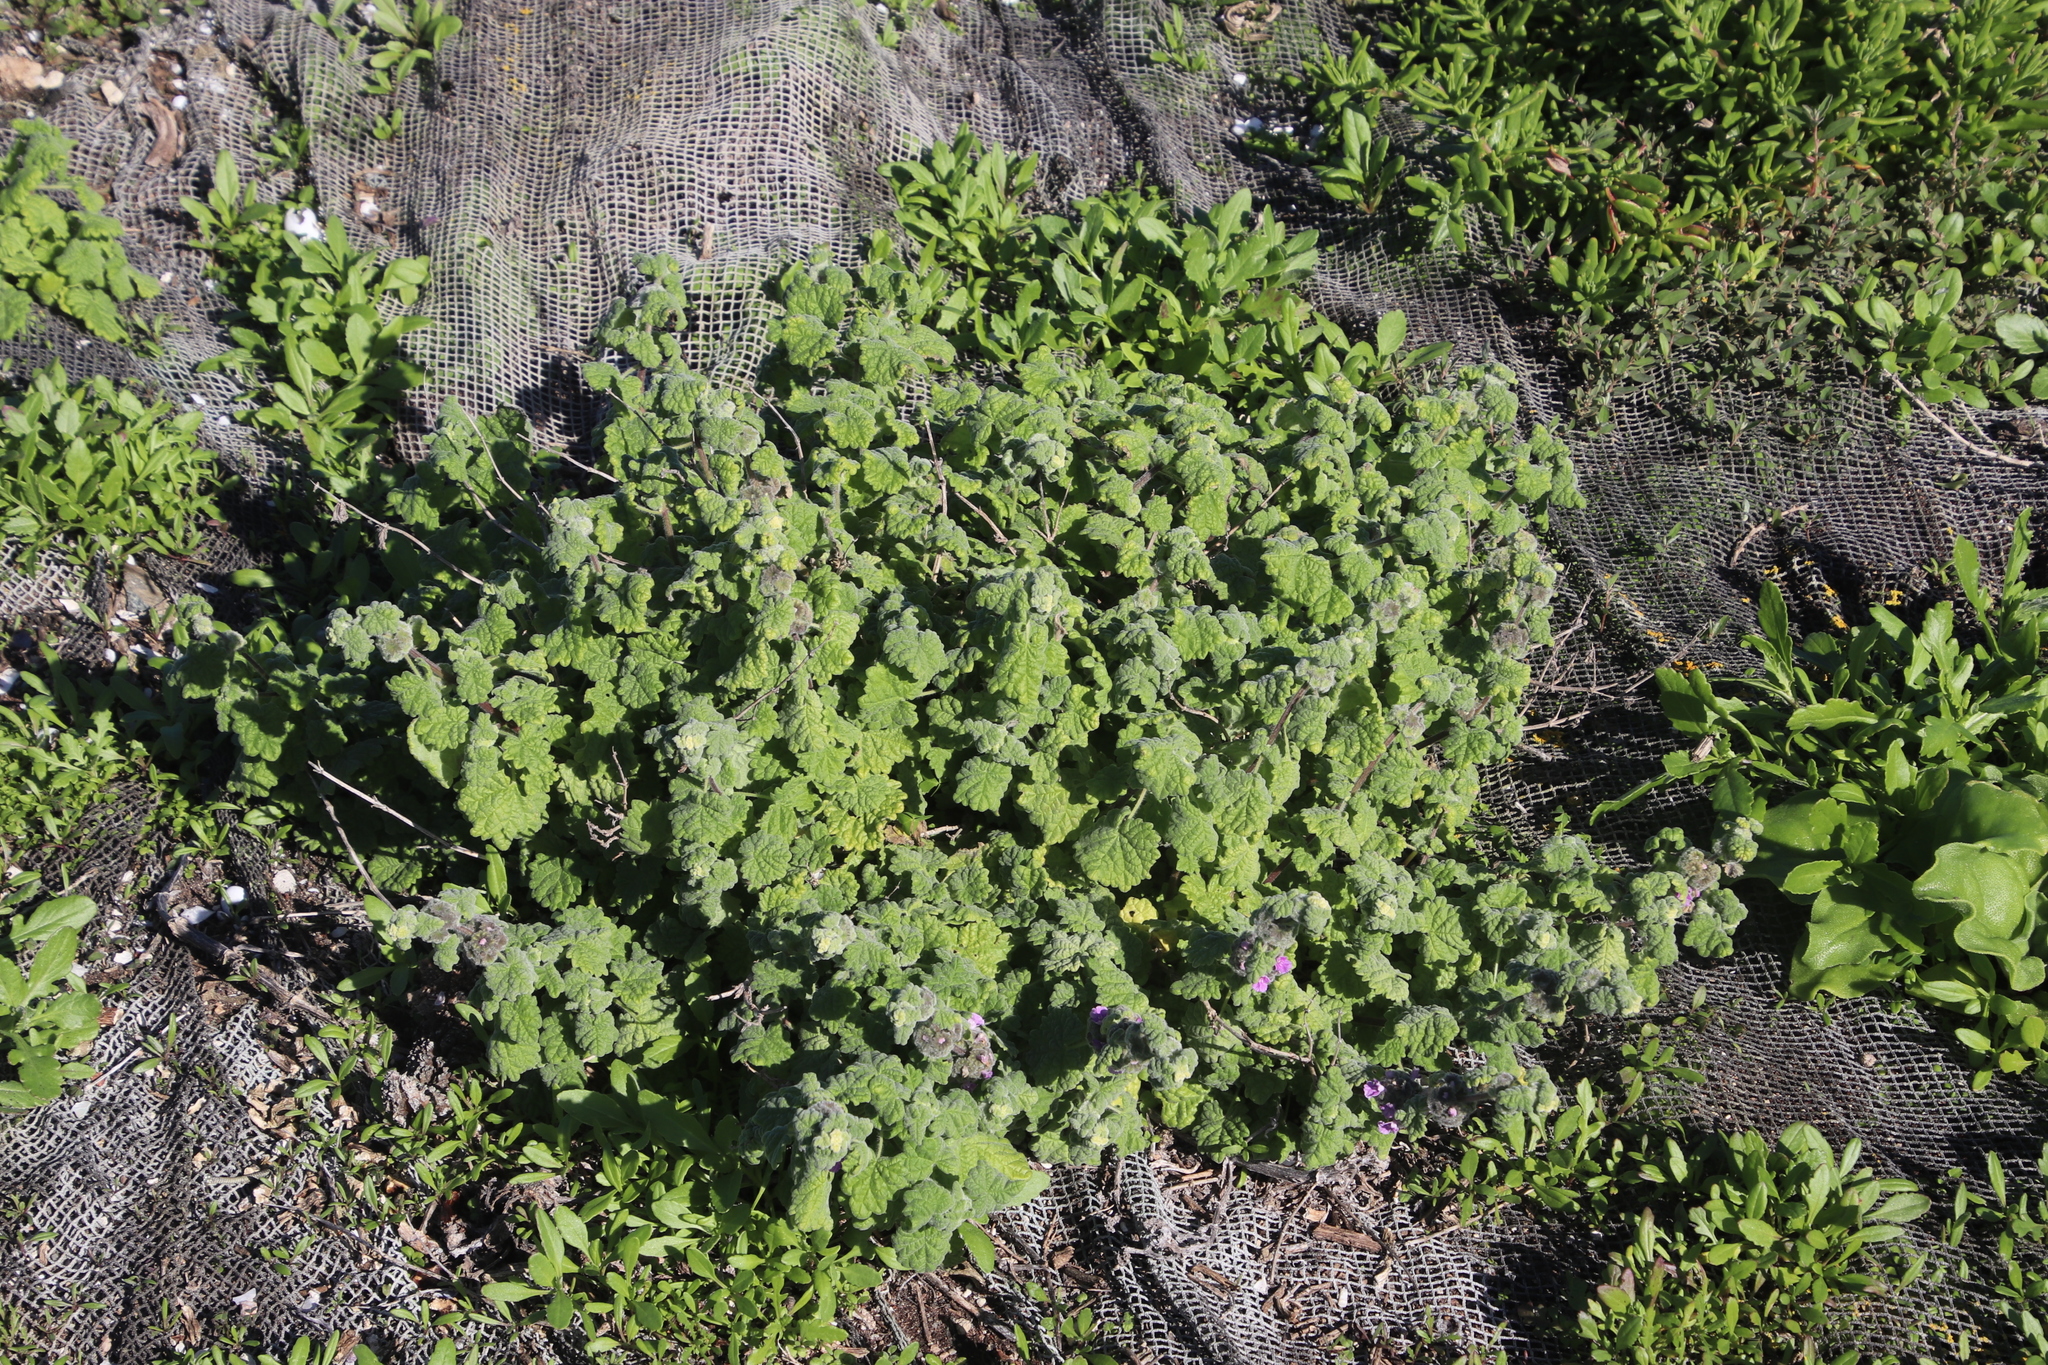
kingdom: Plantae
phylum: Tracheophyta
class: Magnoliopsida
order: Lamiales
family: Lamiaceae
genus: Pseudodictamnus
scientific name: Pseudodictamnus africanus
